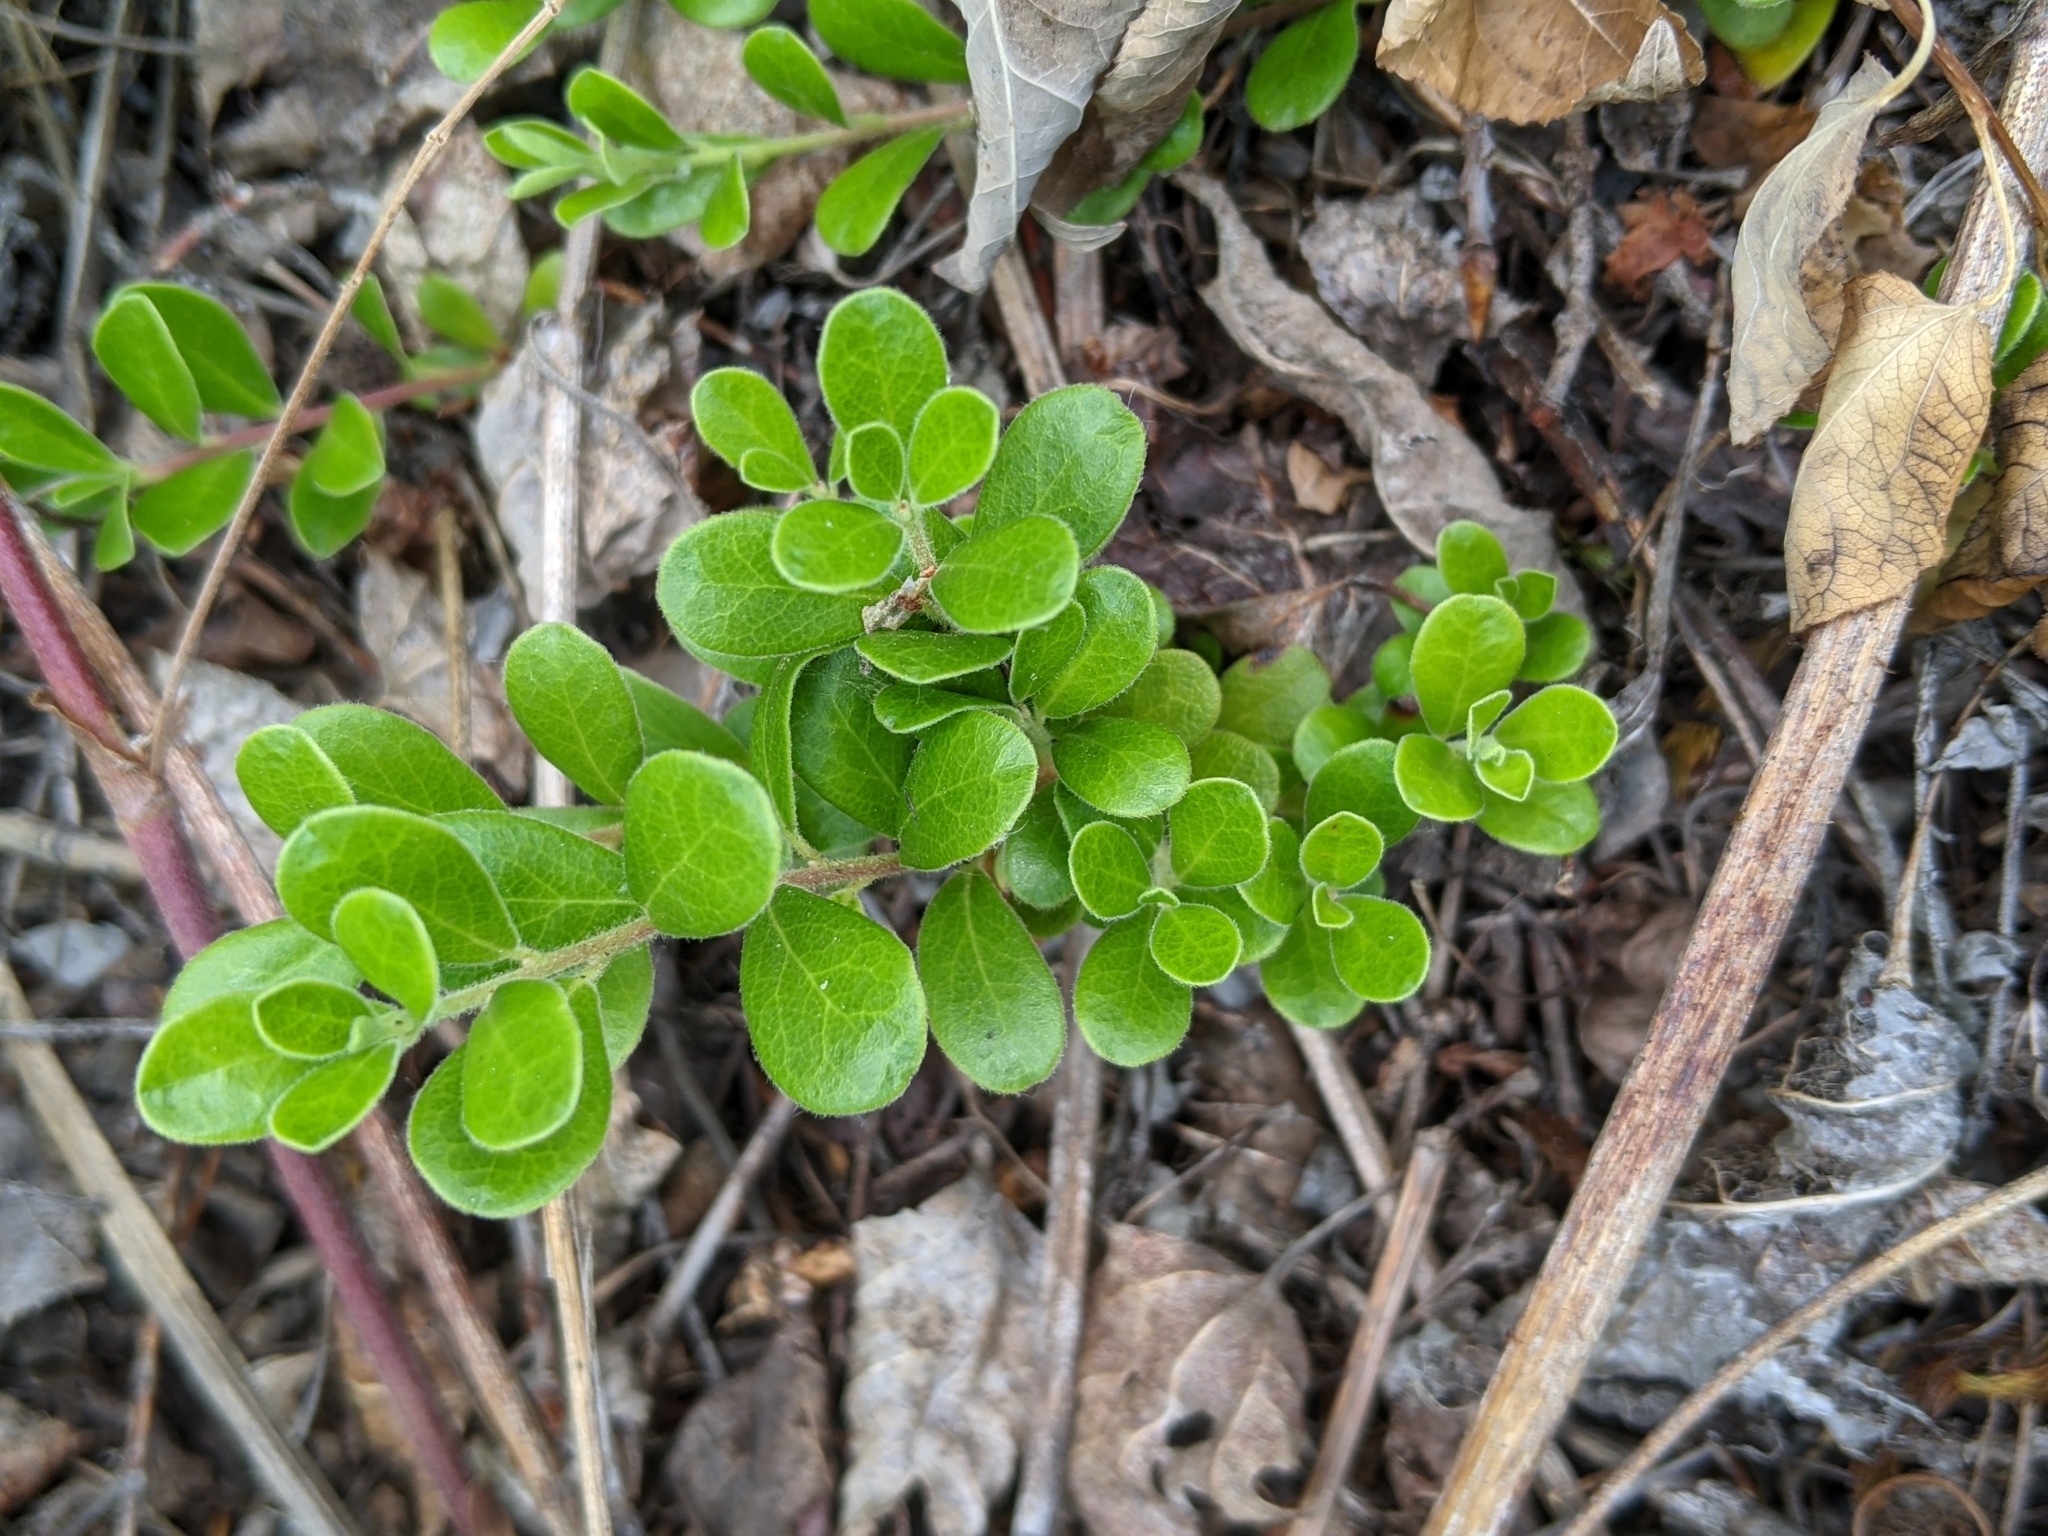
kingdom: Plantae
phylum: Tracheophyta
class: Magnoliopsida
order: Ericales
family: Ericaceae
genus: Arctostaphylos
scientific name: Arctostaphylos uva-ursi
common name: Bearberry
